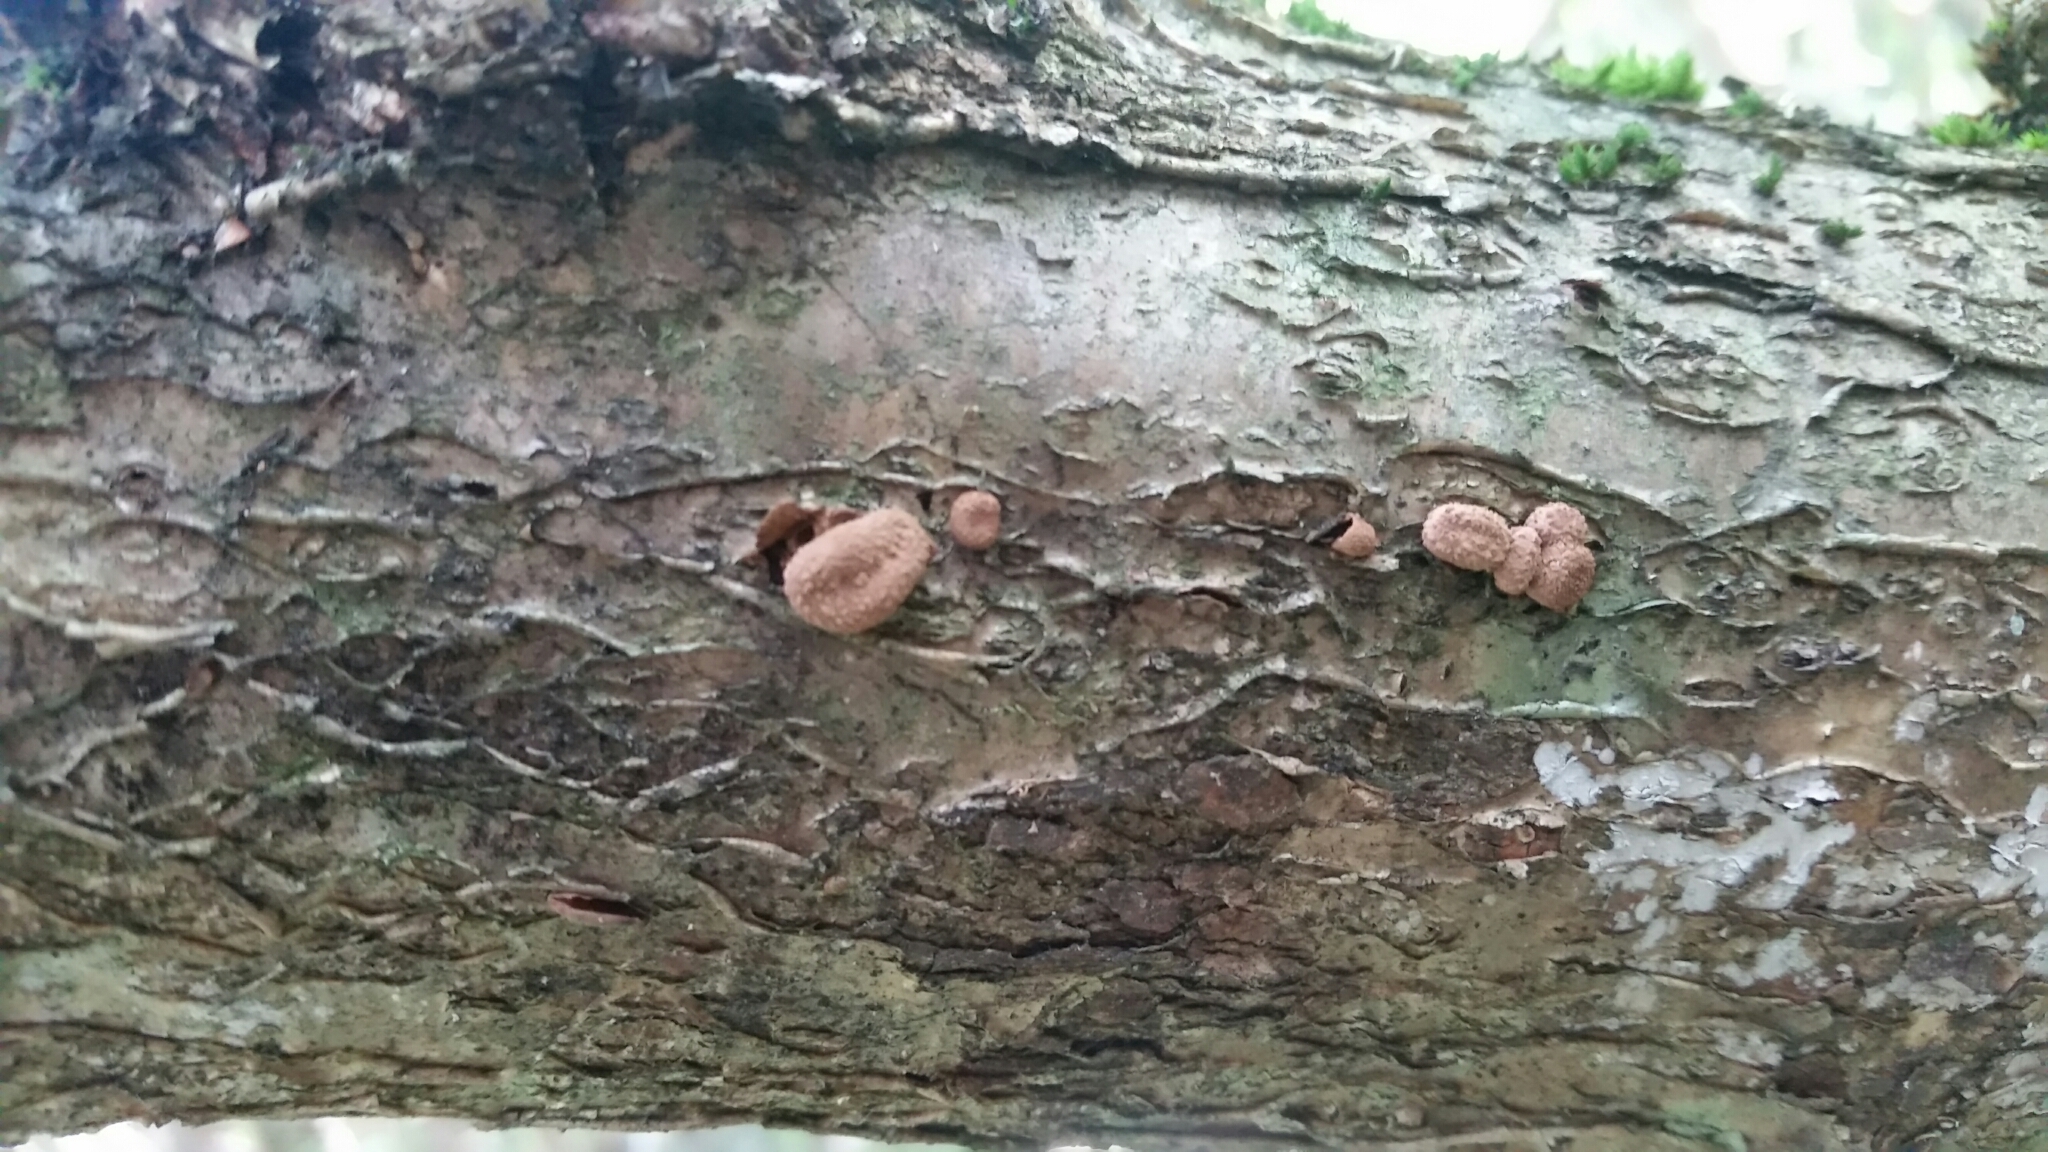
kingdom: Fungi
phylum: Ascomycota
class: Leotiomycetes
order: Helotiales
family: Cenangiaceae
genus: Encoelia
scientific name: Encoelia furfuracea
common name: Spring hazelcup
